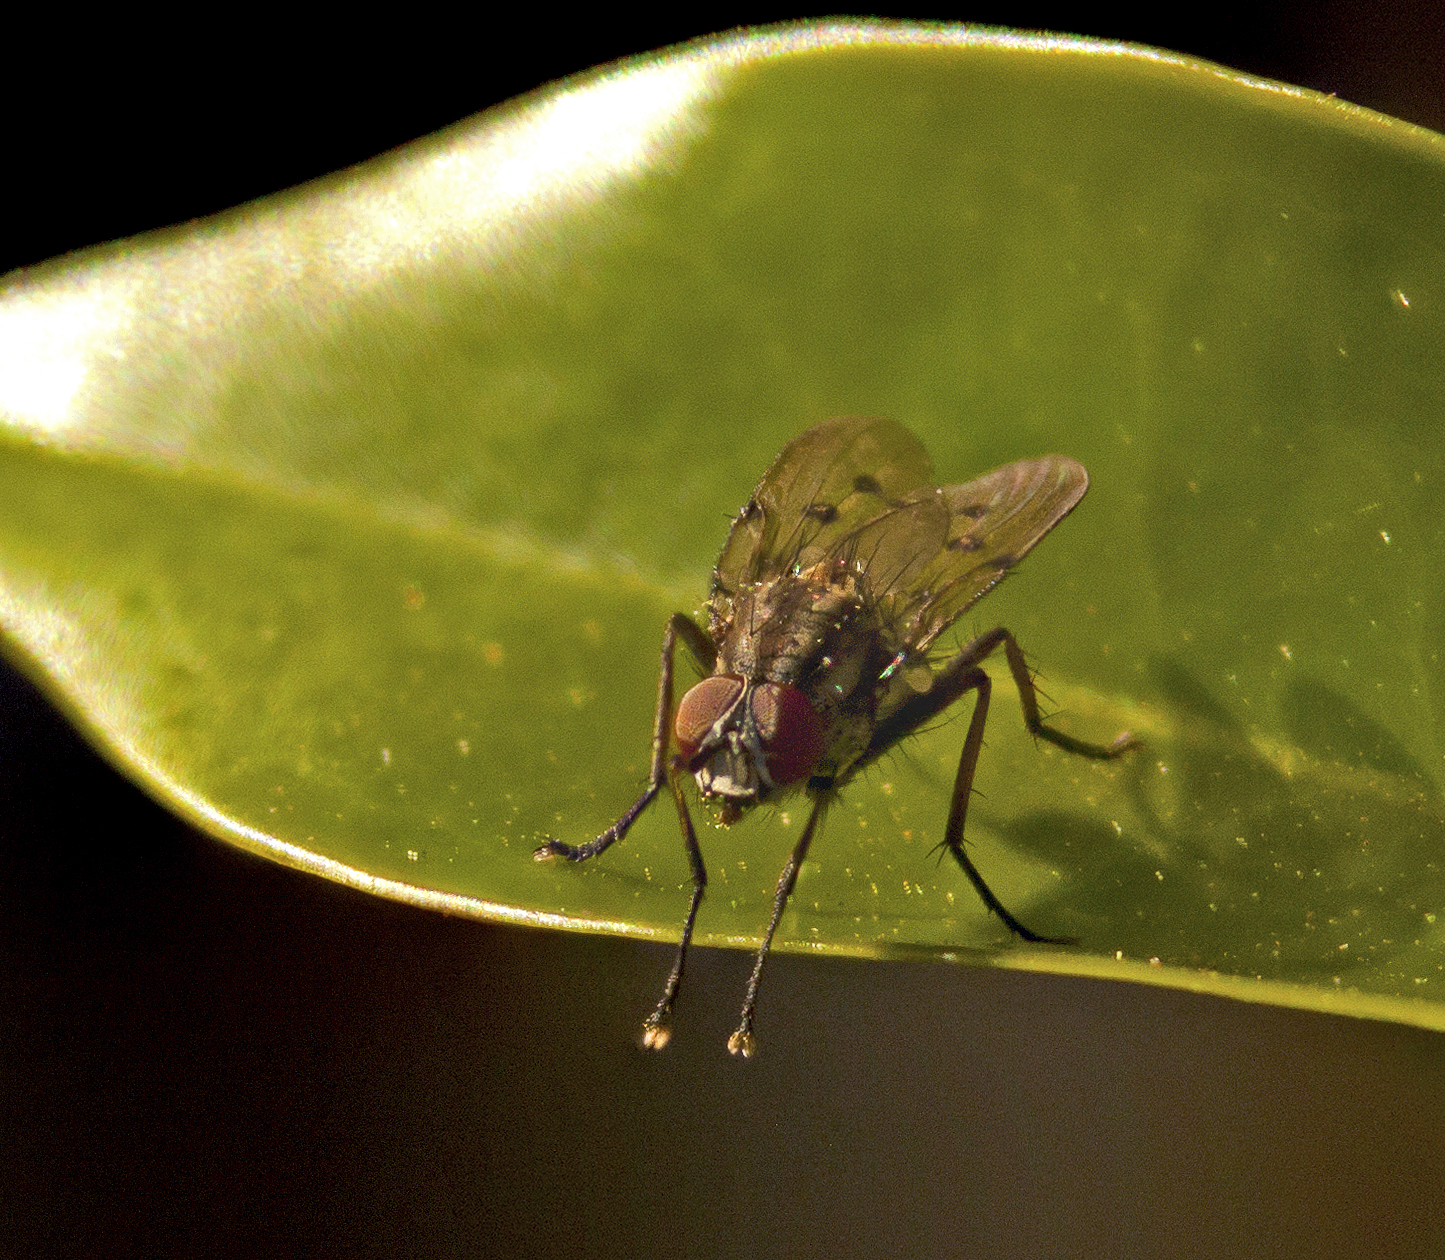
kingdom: Animalia
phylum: Arthropoda
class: Insecta
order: Diptera
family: Anthomyiidae
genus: Anthomyia
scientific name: Anthomyia punctipennis
